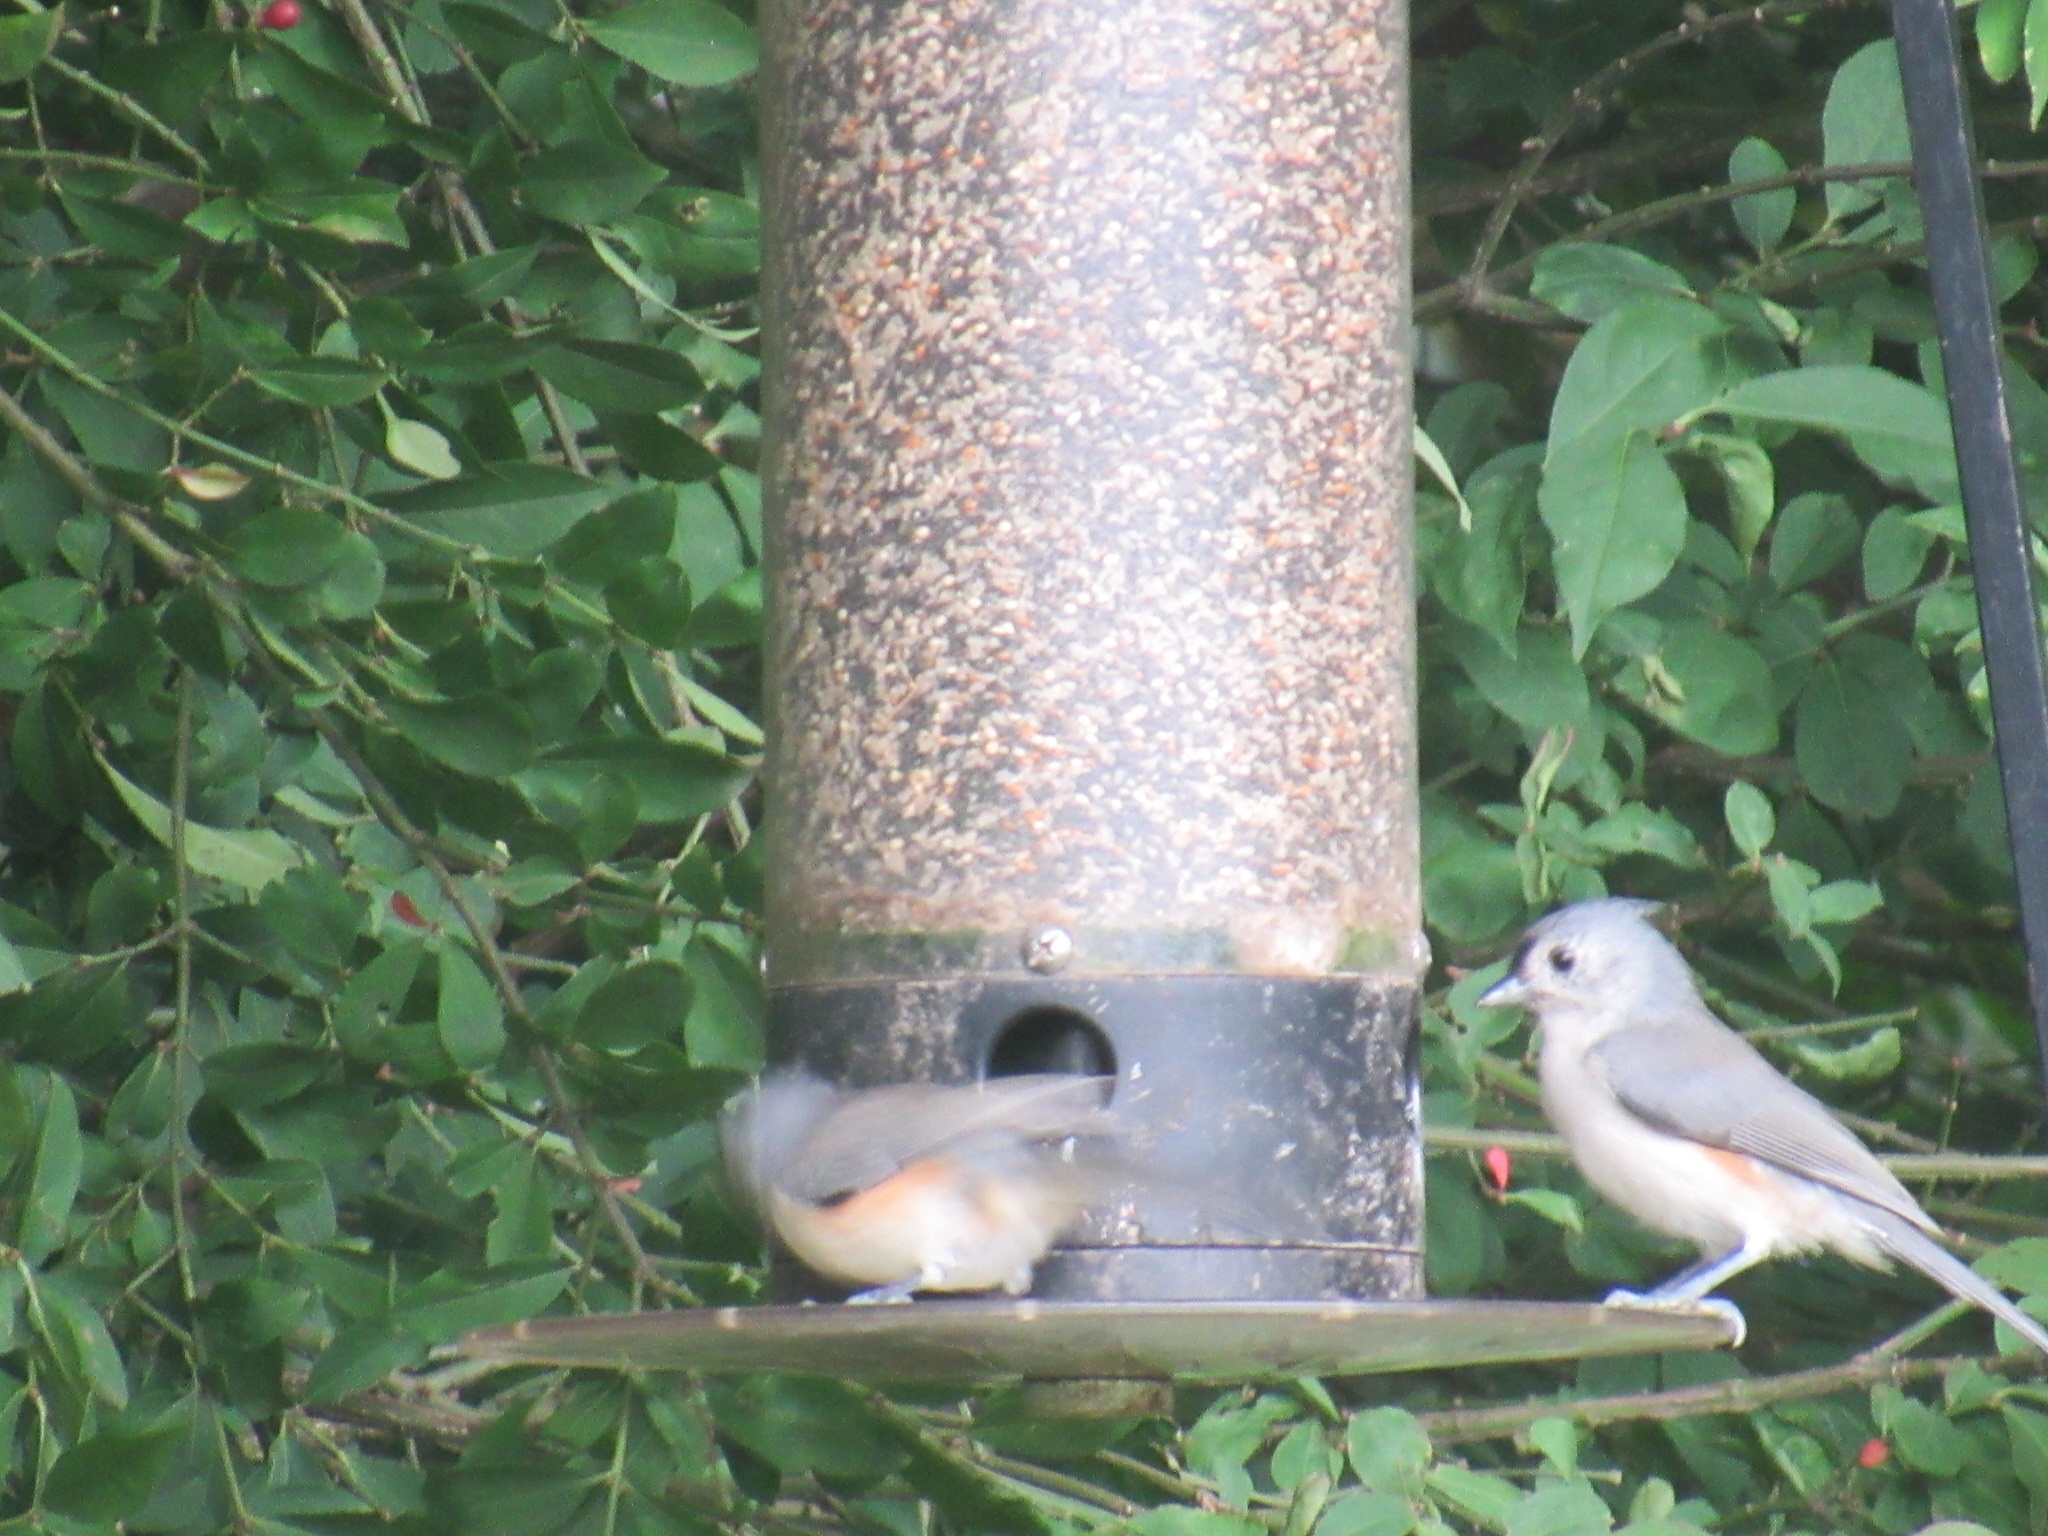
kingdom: Animalia
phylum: Chordata
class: Aves
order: Passeriformes
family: Paridae
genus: Baeolophus
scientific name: Baeolophus bicolor
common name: Tufted titmouse
